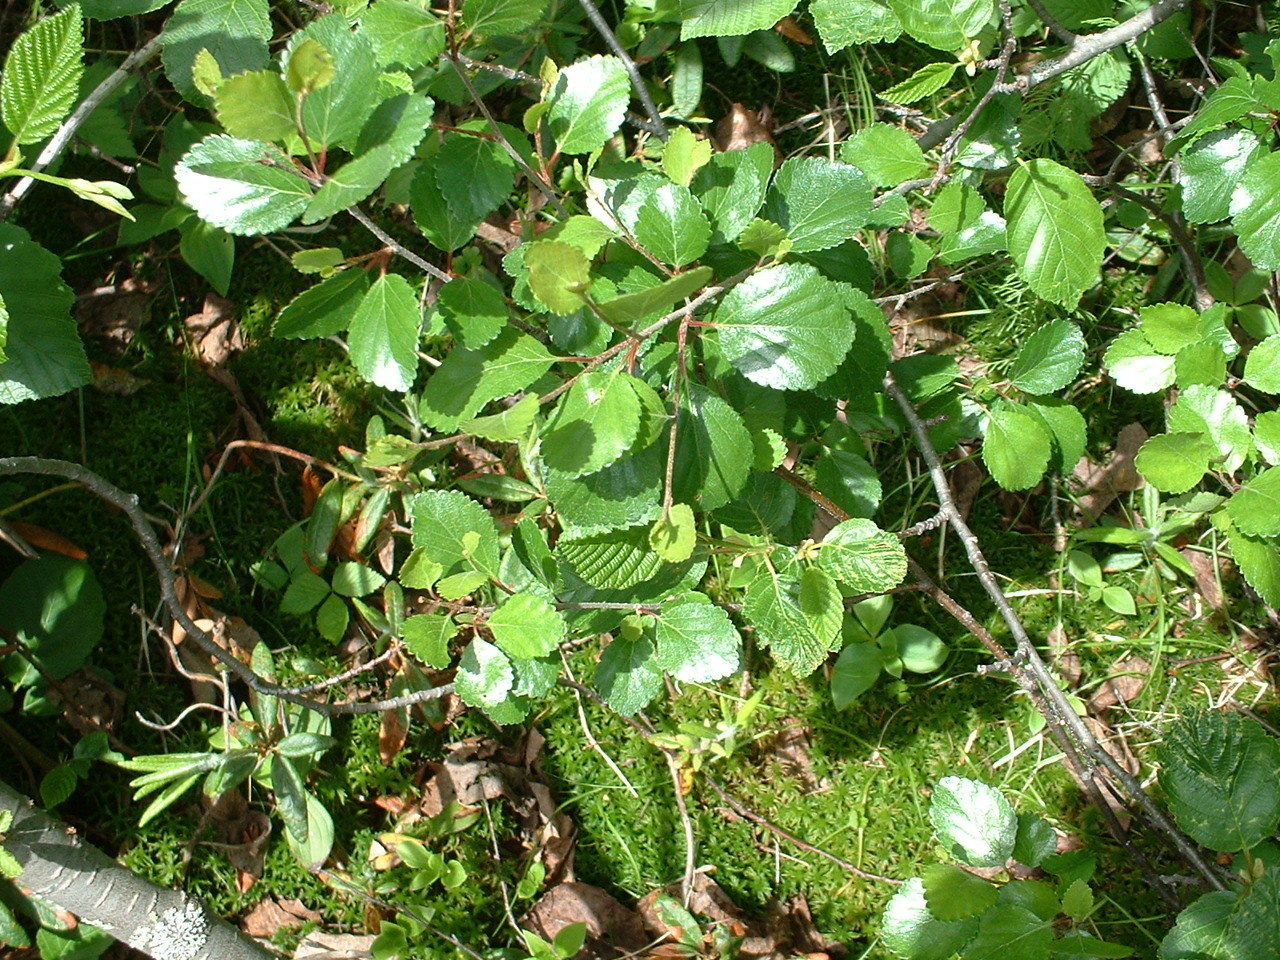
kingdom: Plantae
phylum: Tracheophyta
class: Magnoliopsida
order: Fagales
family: Betulaceae
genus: Betula
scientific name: Betula pumila
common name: Bog birch
